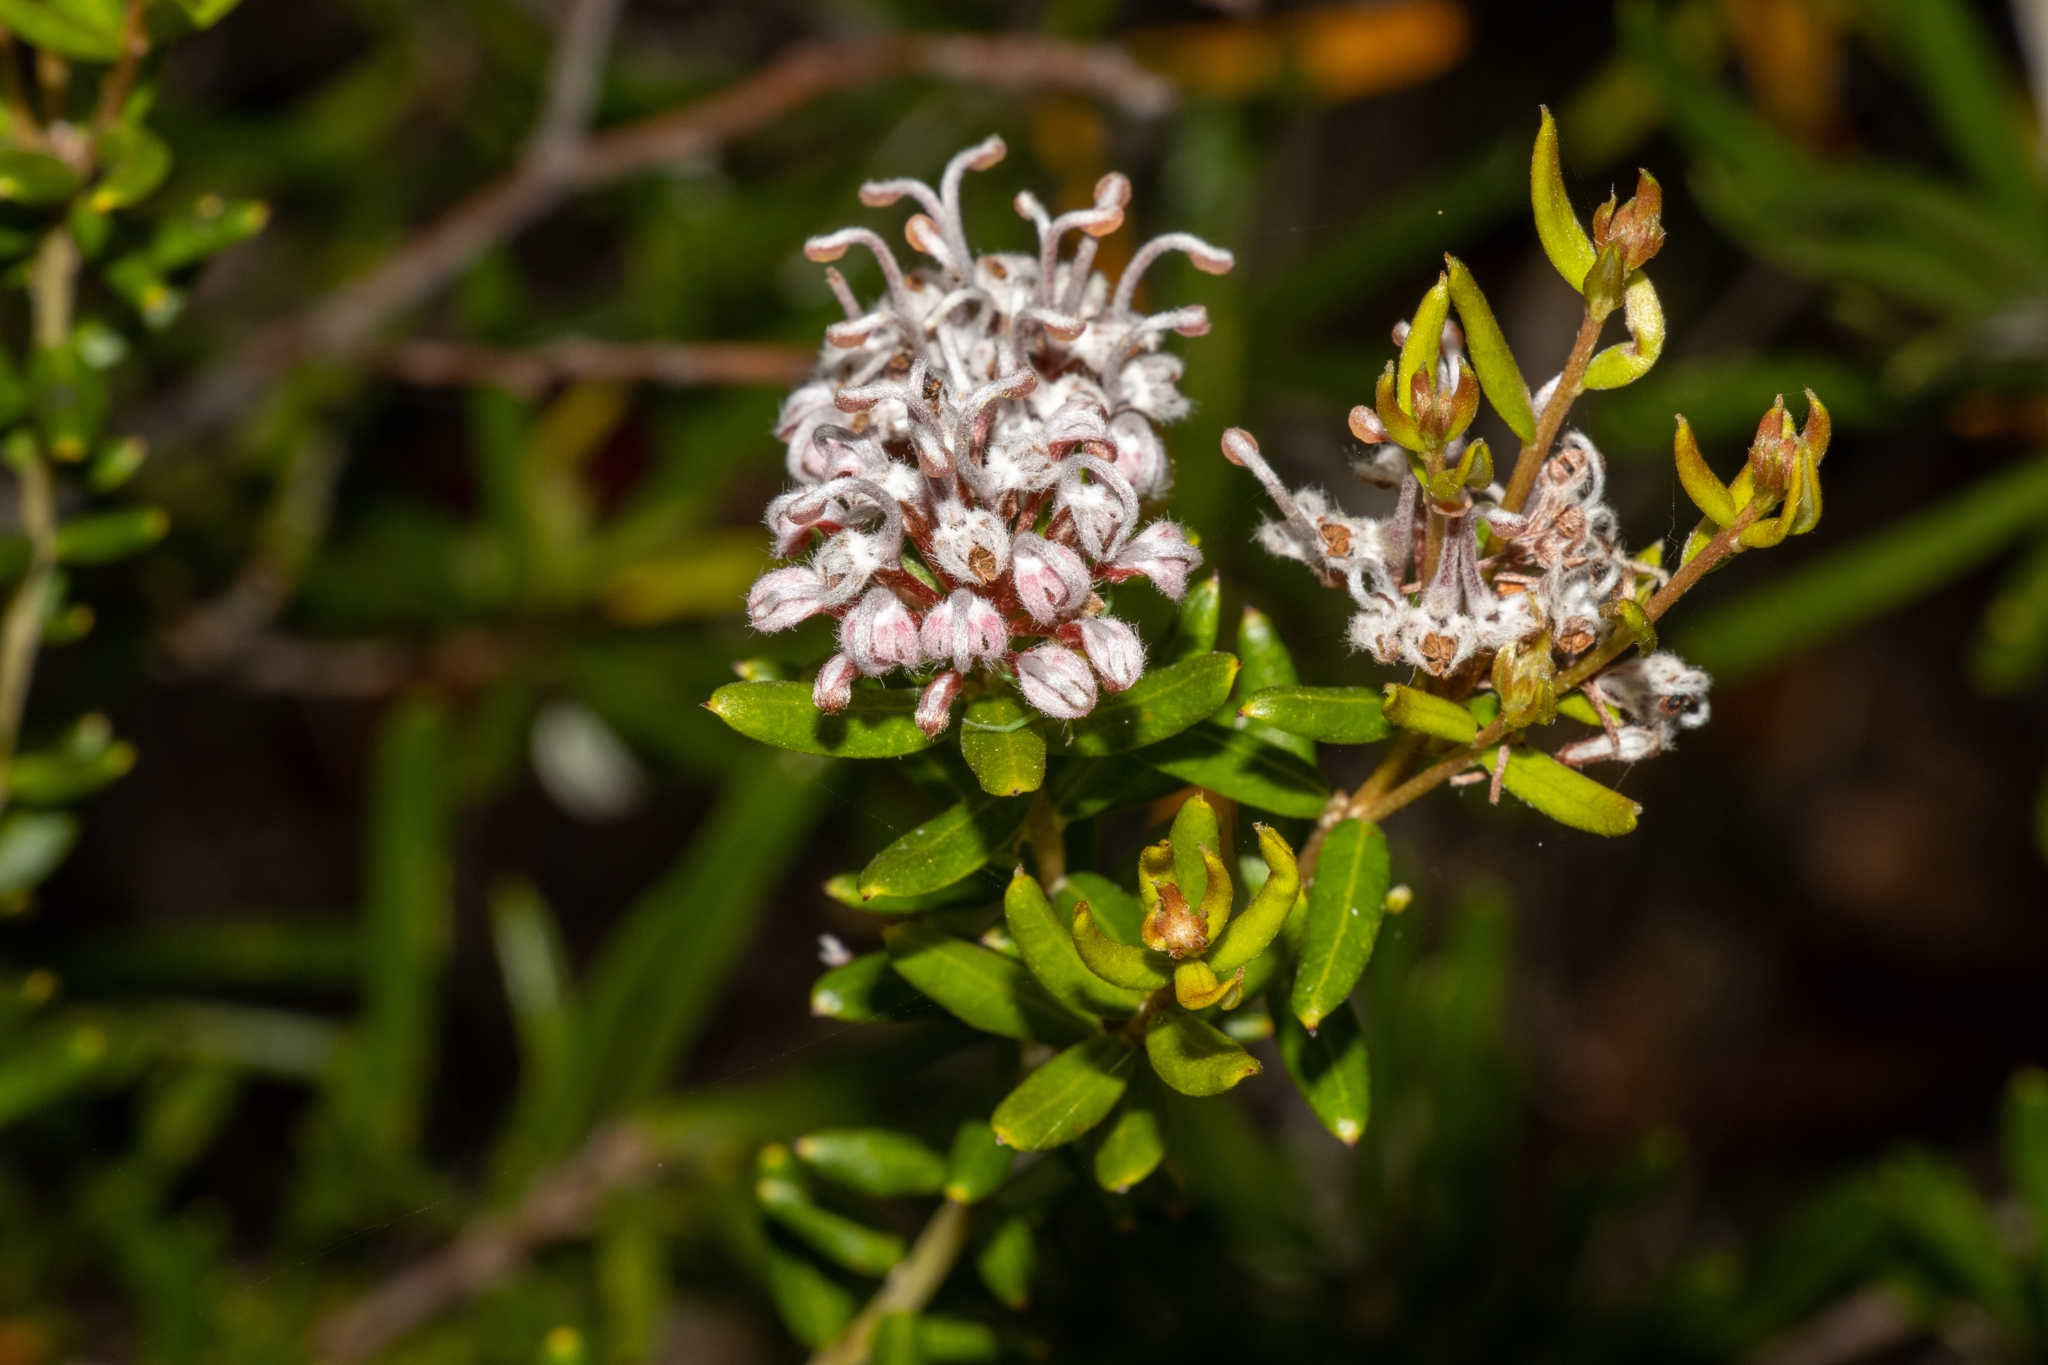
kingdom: Plantae
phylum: Tracheophyta
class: Magnoliopsida
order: Proteales
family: Proteaceae
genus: Grevillea
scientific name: Grevillea sphacelata
